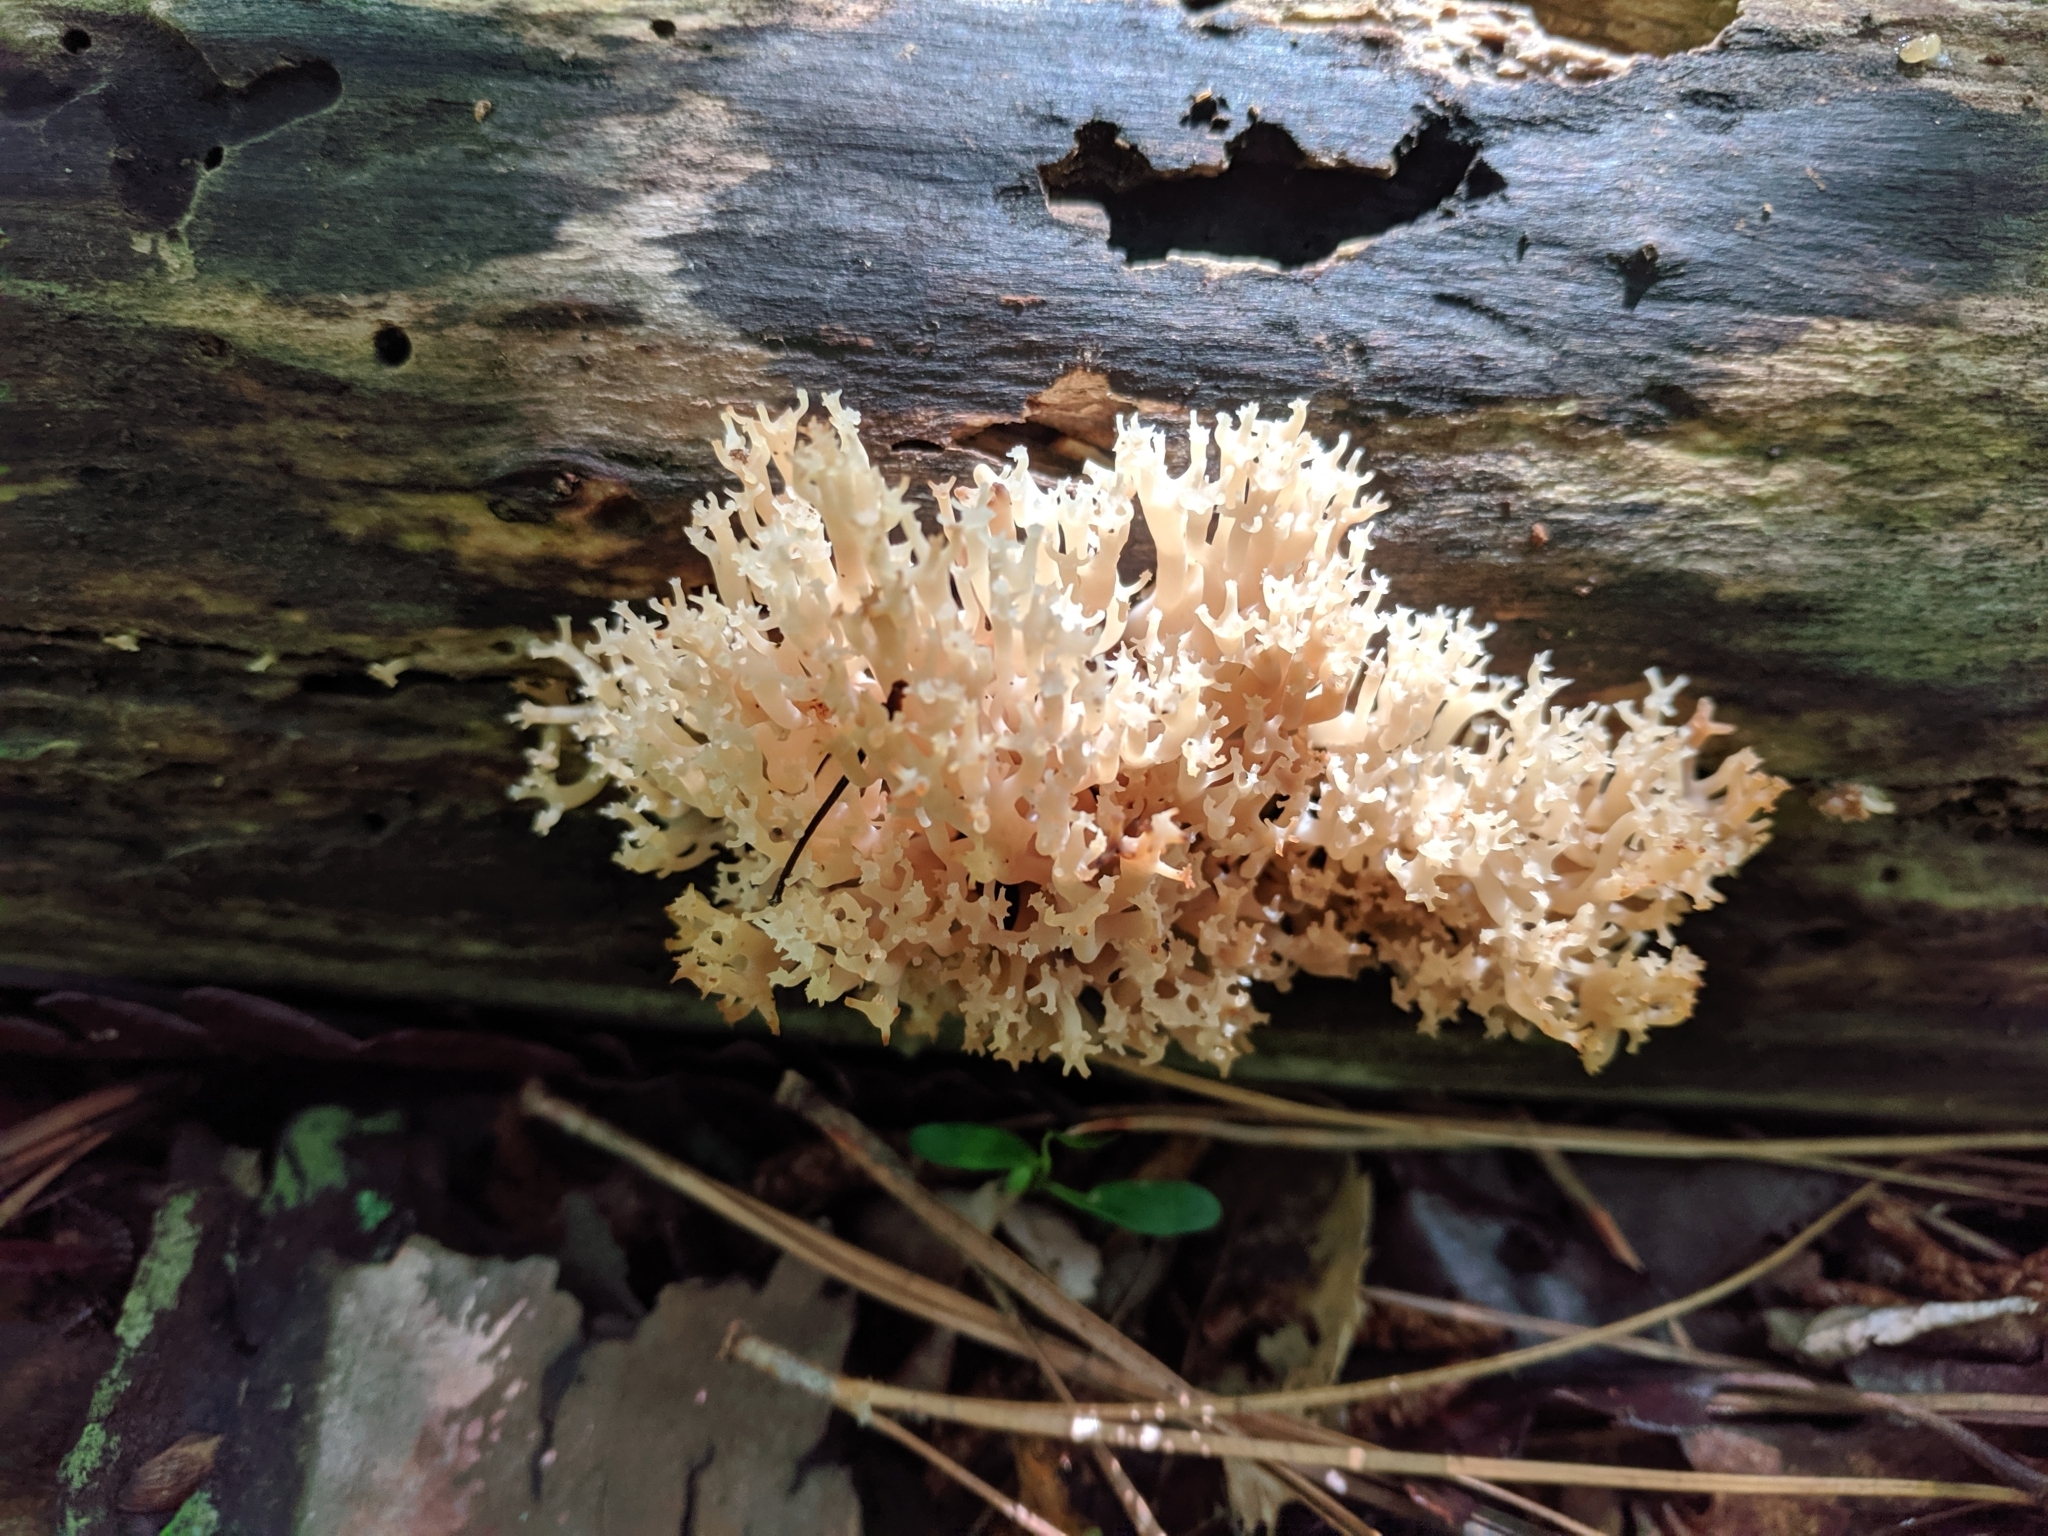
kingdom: Fungi
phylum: Basidiomycota
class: Agaricomycetes
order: Russulales
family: Auriscalpiaceae
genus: Artomyces
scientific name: Artomyces pyxidatus
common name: Crown-tipped coral fungus
